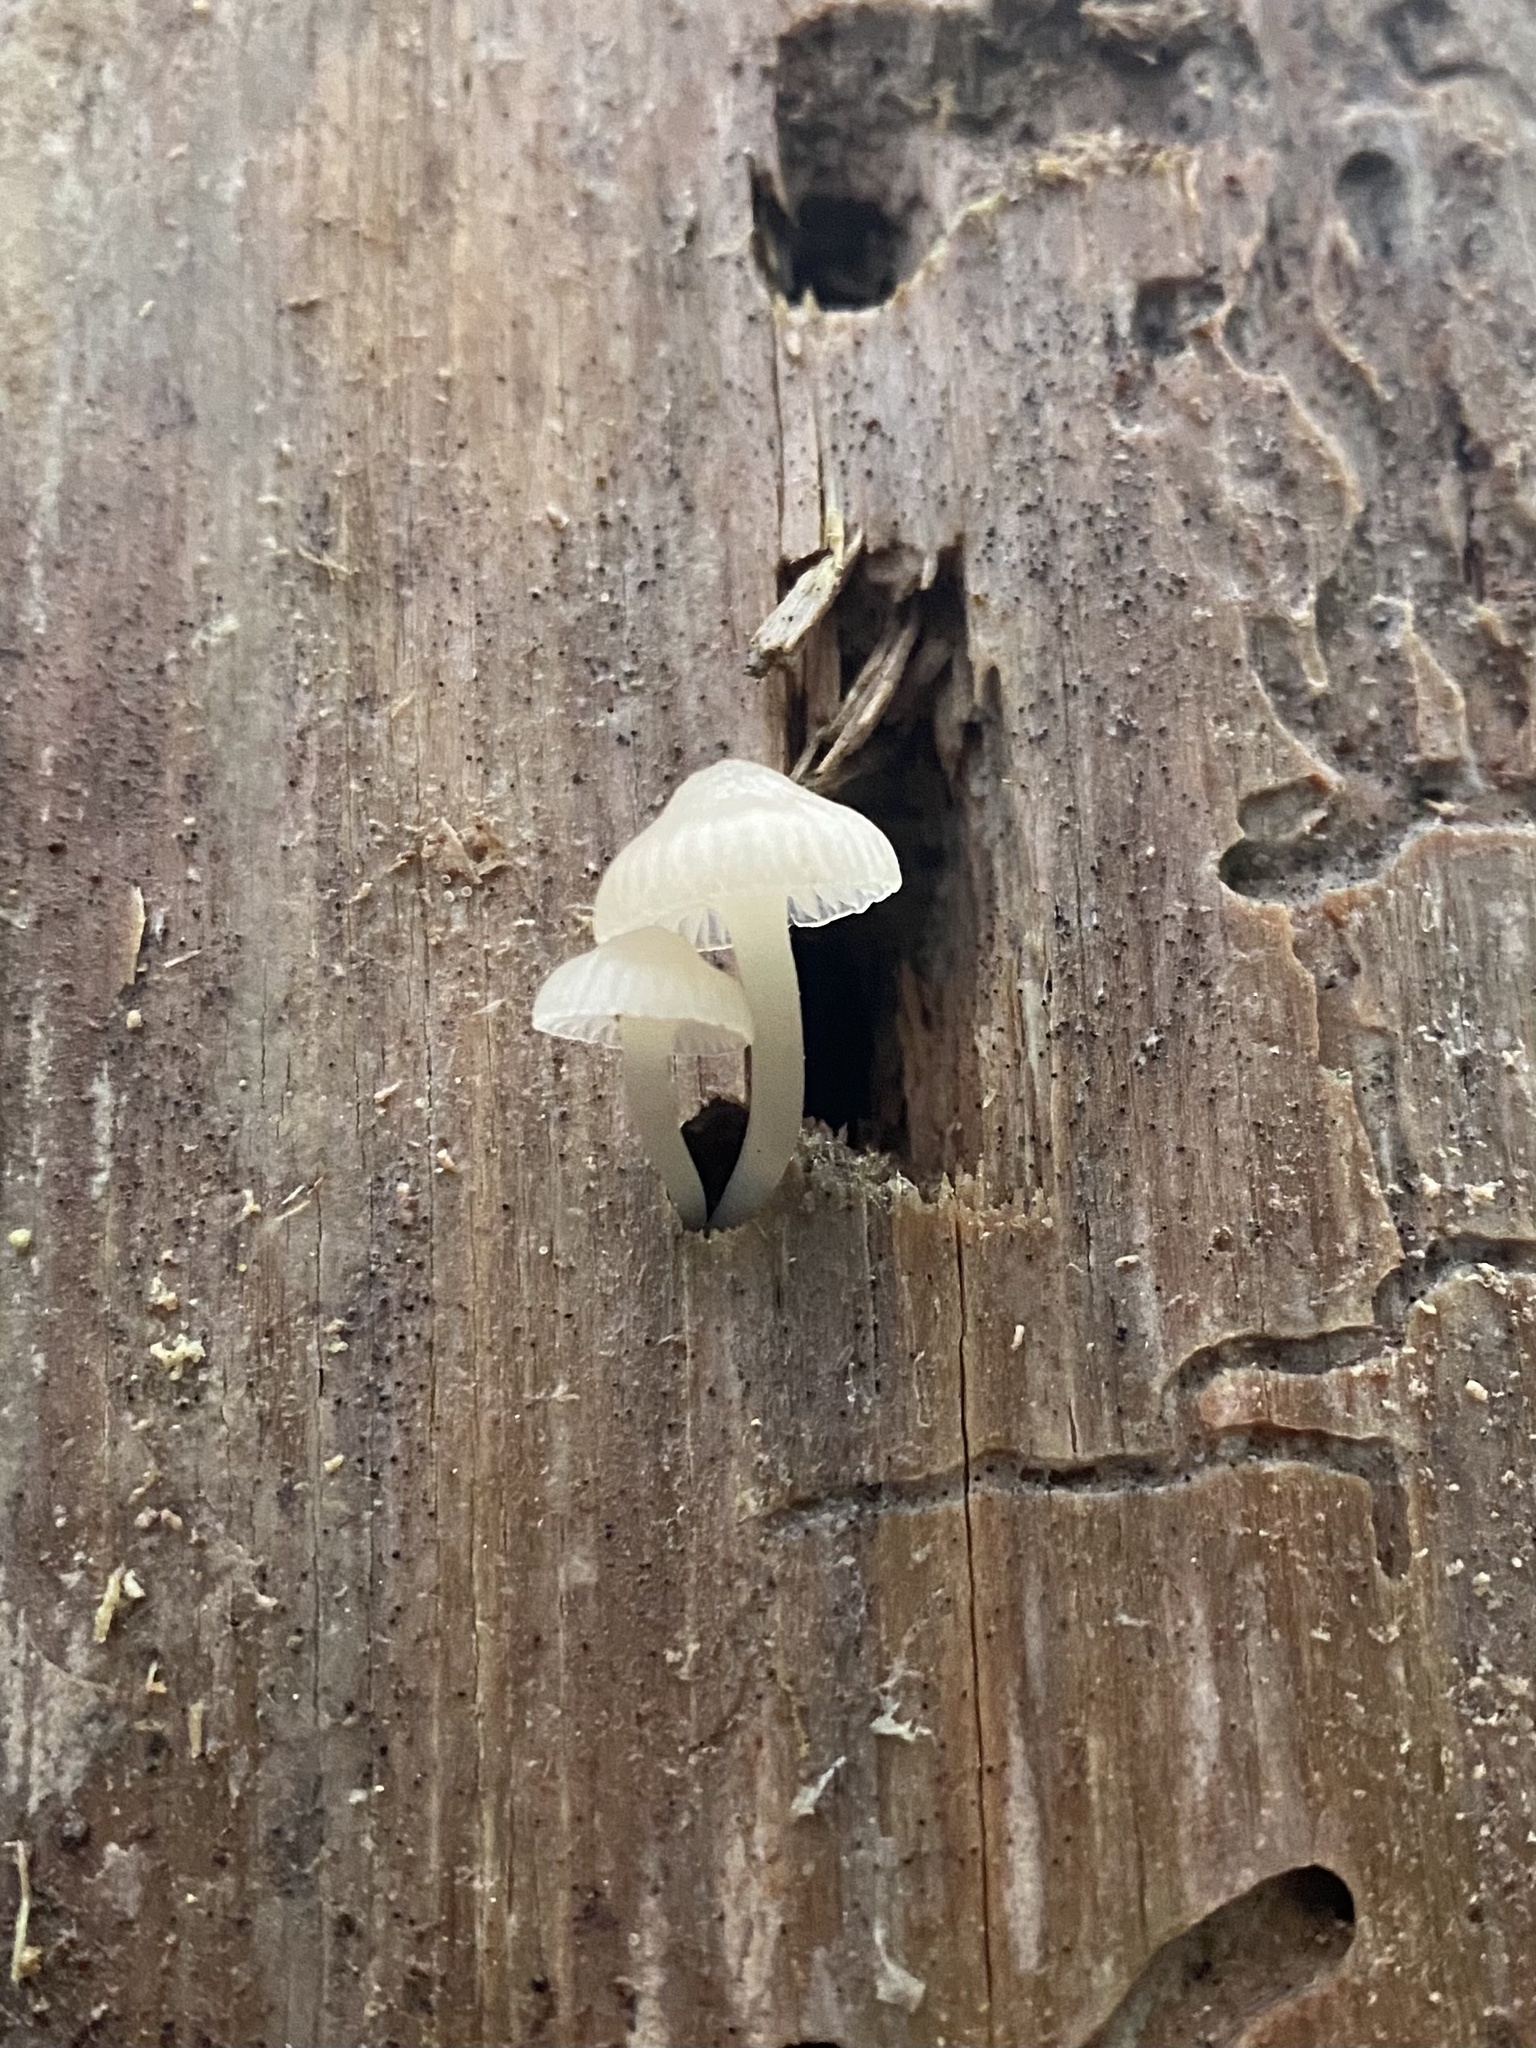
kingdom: Fungi
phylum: Basidiomycota
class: Agaricomycetes
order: Agaricales
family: Mycenaceae
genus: Mycena
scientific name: Mycena laevigata
